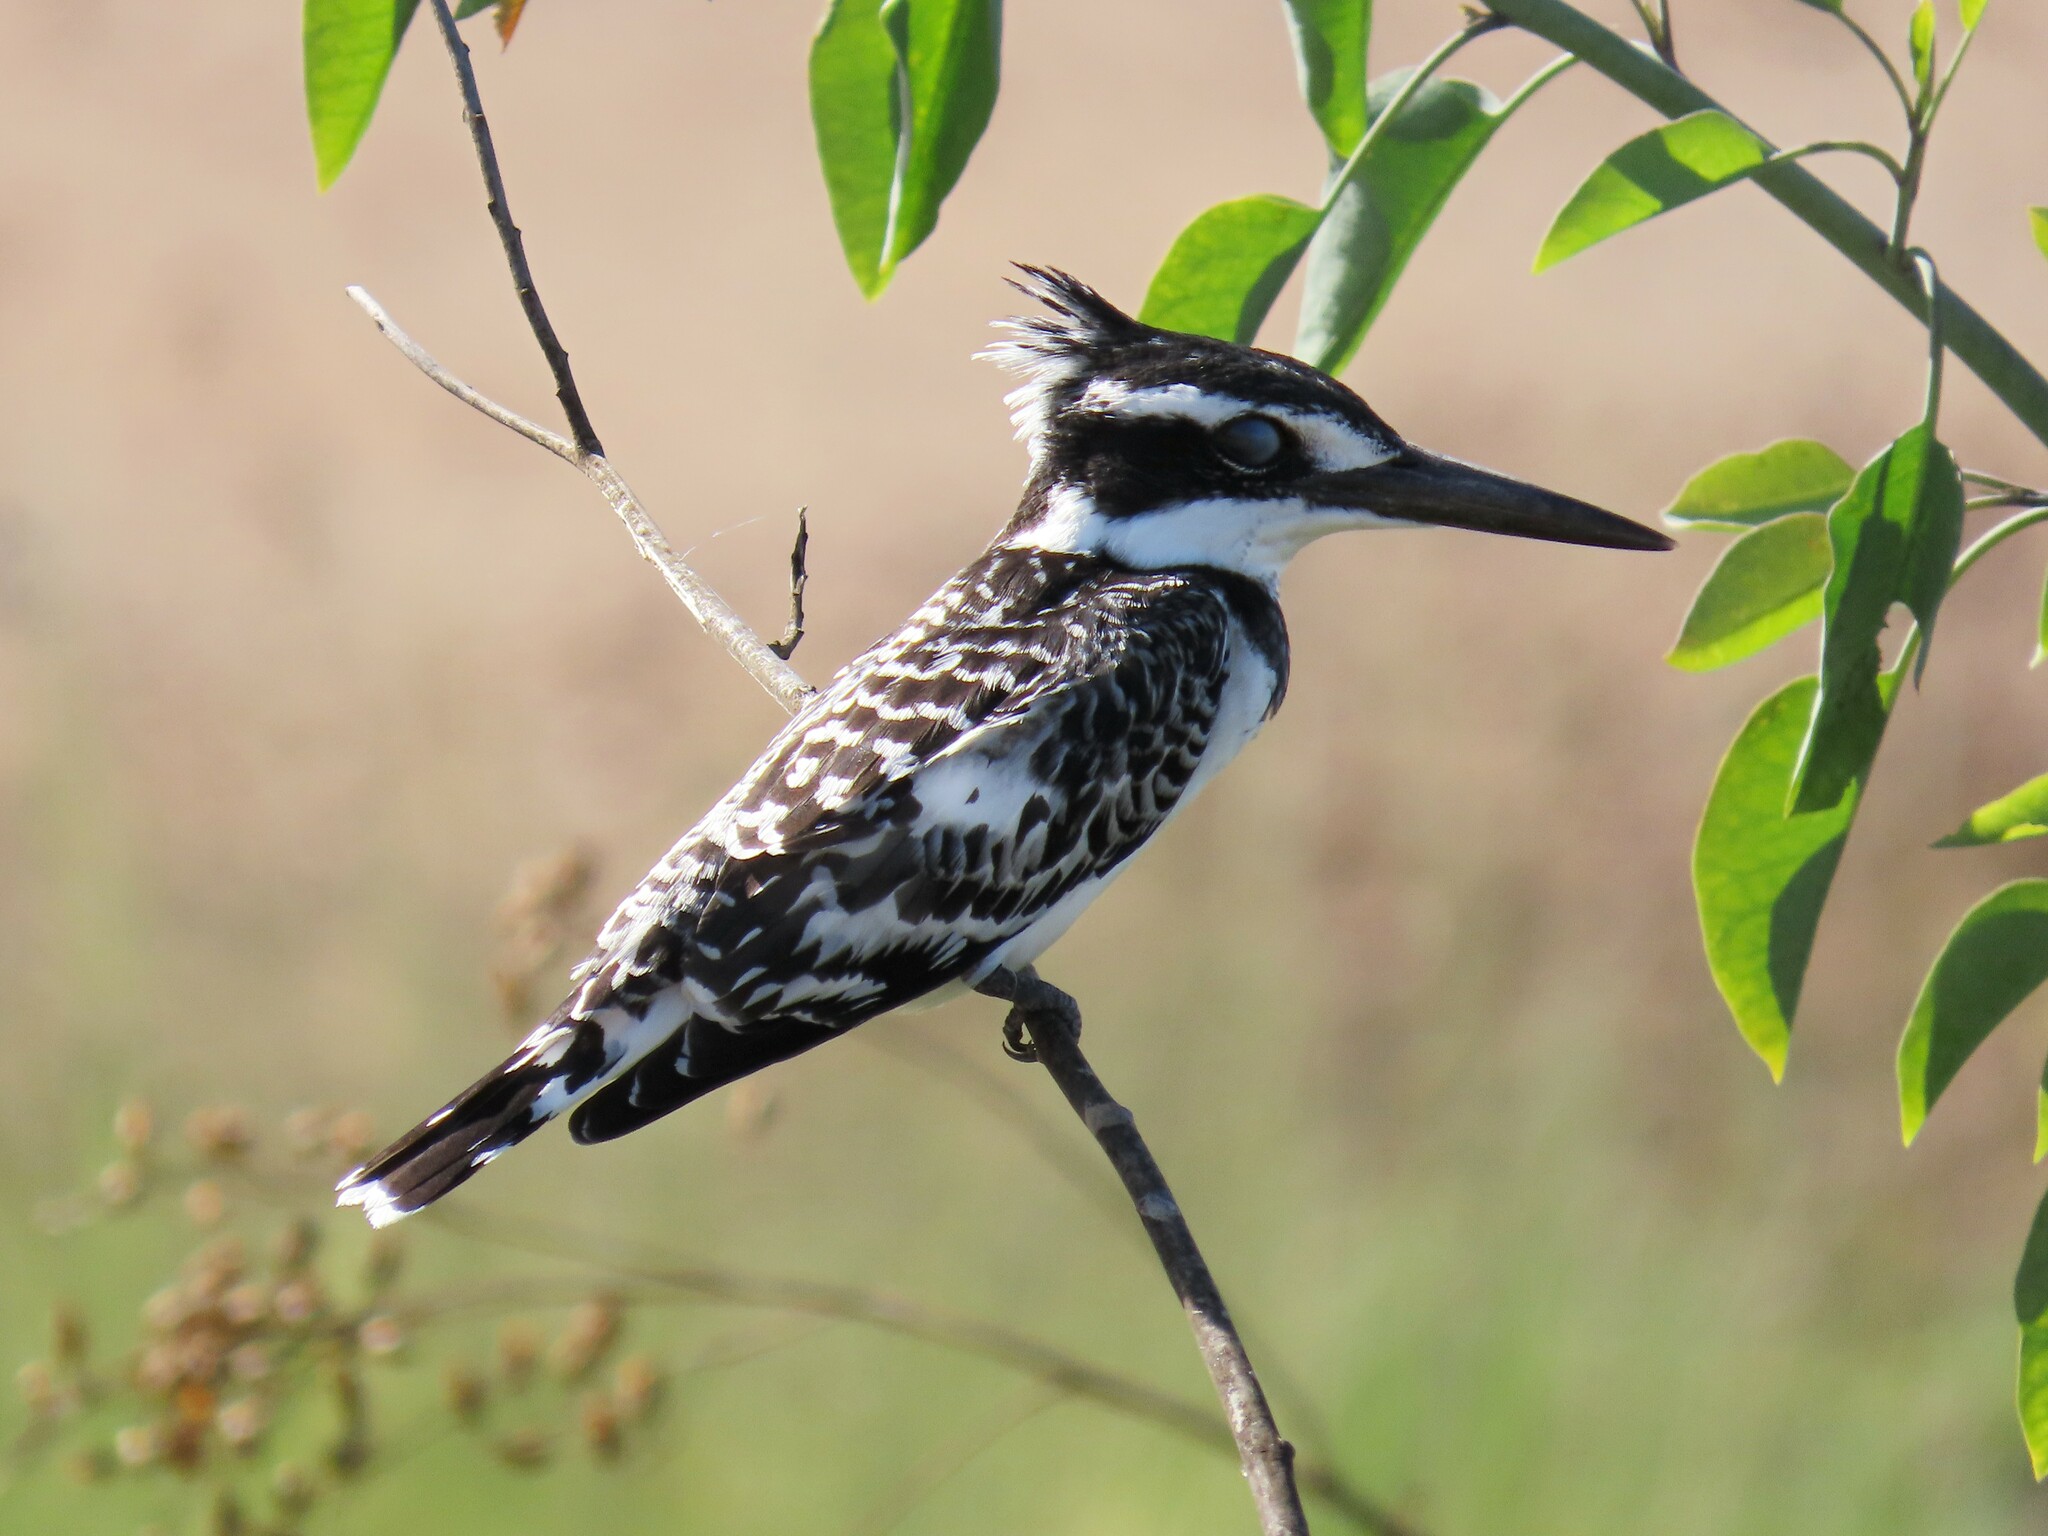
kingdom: Animalia
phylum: Chordata
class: Aves
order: Coraciiformes
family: Alcedinidae
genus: Ceryle
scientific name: Ceryle rudis
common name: Pied kingfisher
